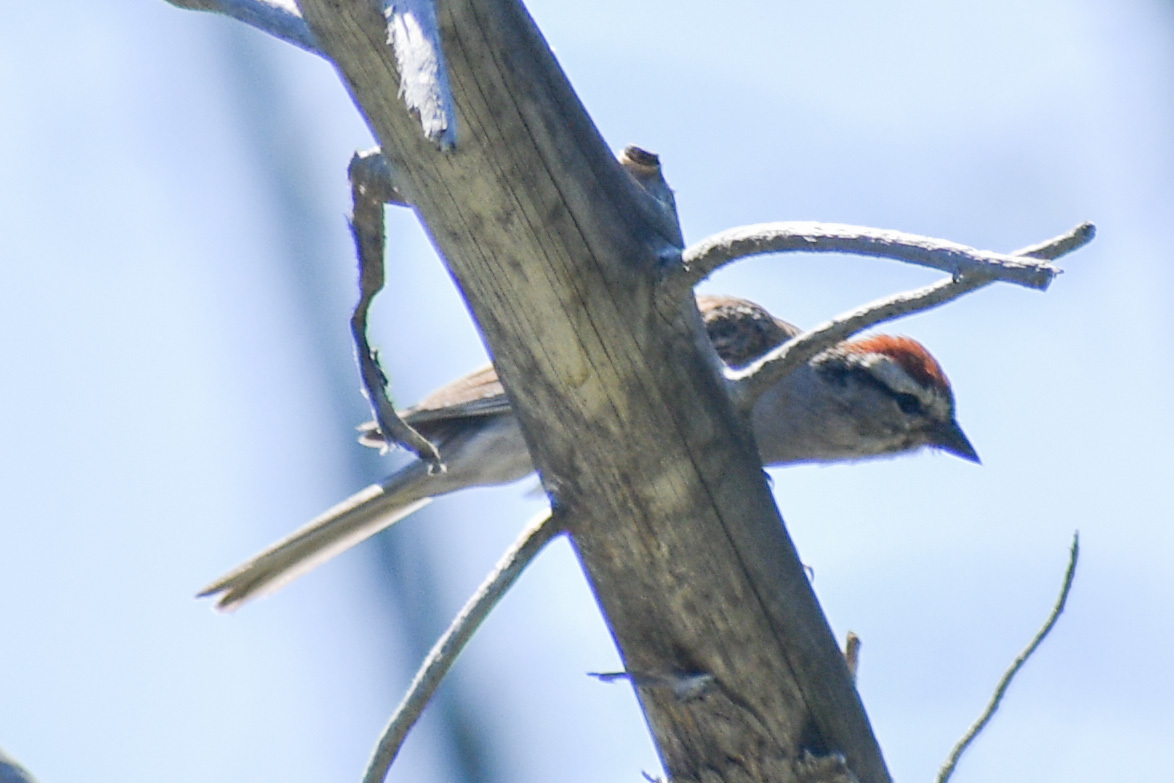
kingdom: Animalia
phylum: Chordata
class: Aves
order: Passeriformes
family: Passerellidae
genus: Spizella
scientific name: Spizella passerina
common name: Chipping sparrow
